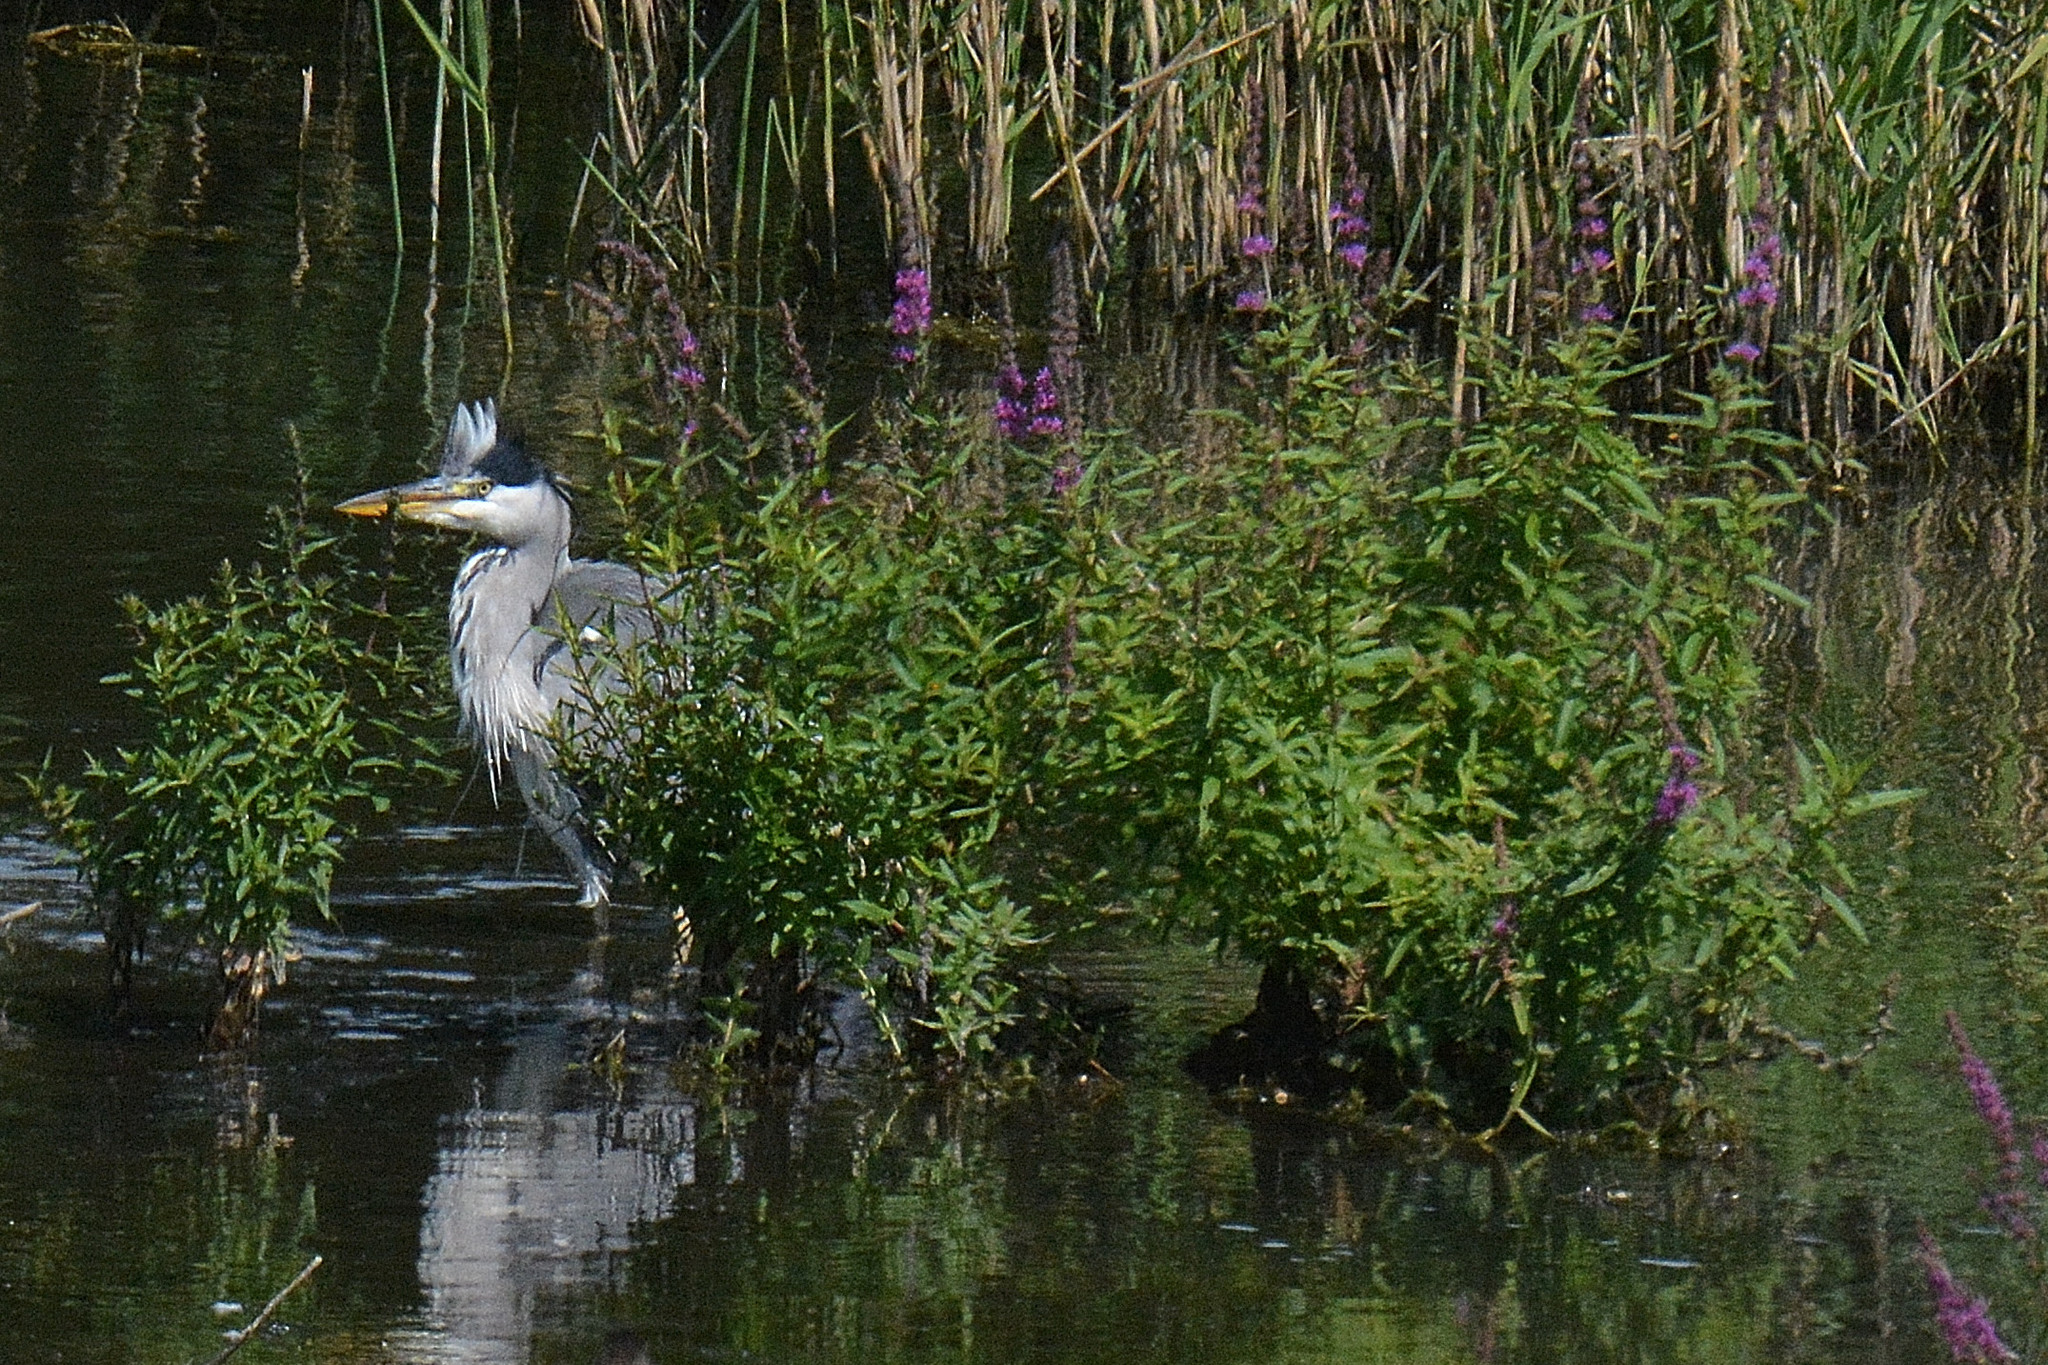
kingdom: Animalia
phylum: Chordata
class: Aves
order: Pelecaniformes
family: Ardeidae
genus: Ardea
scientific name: Ardea cinerea
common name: Grey heron
